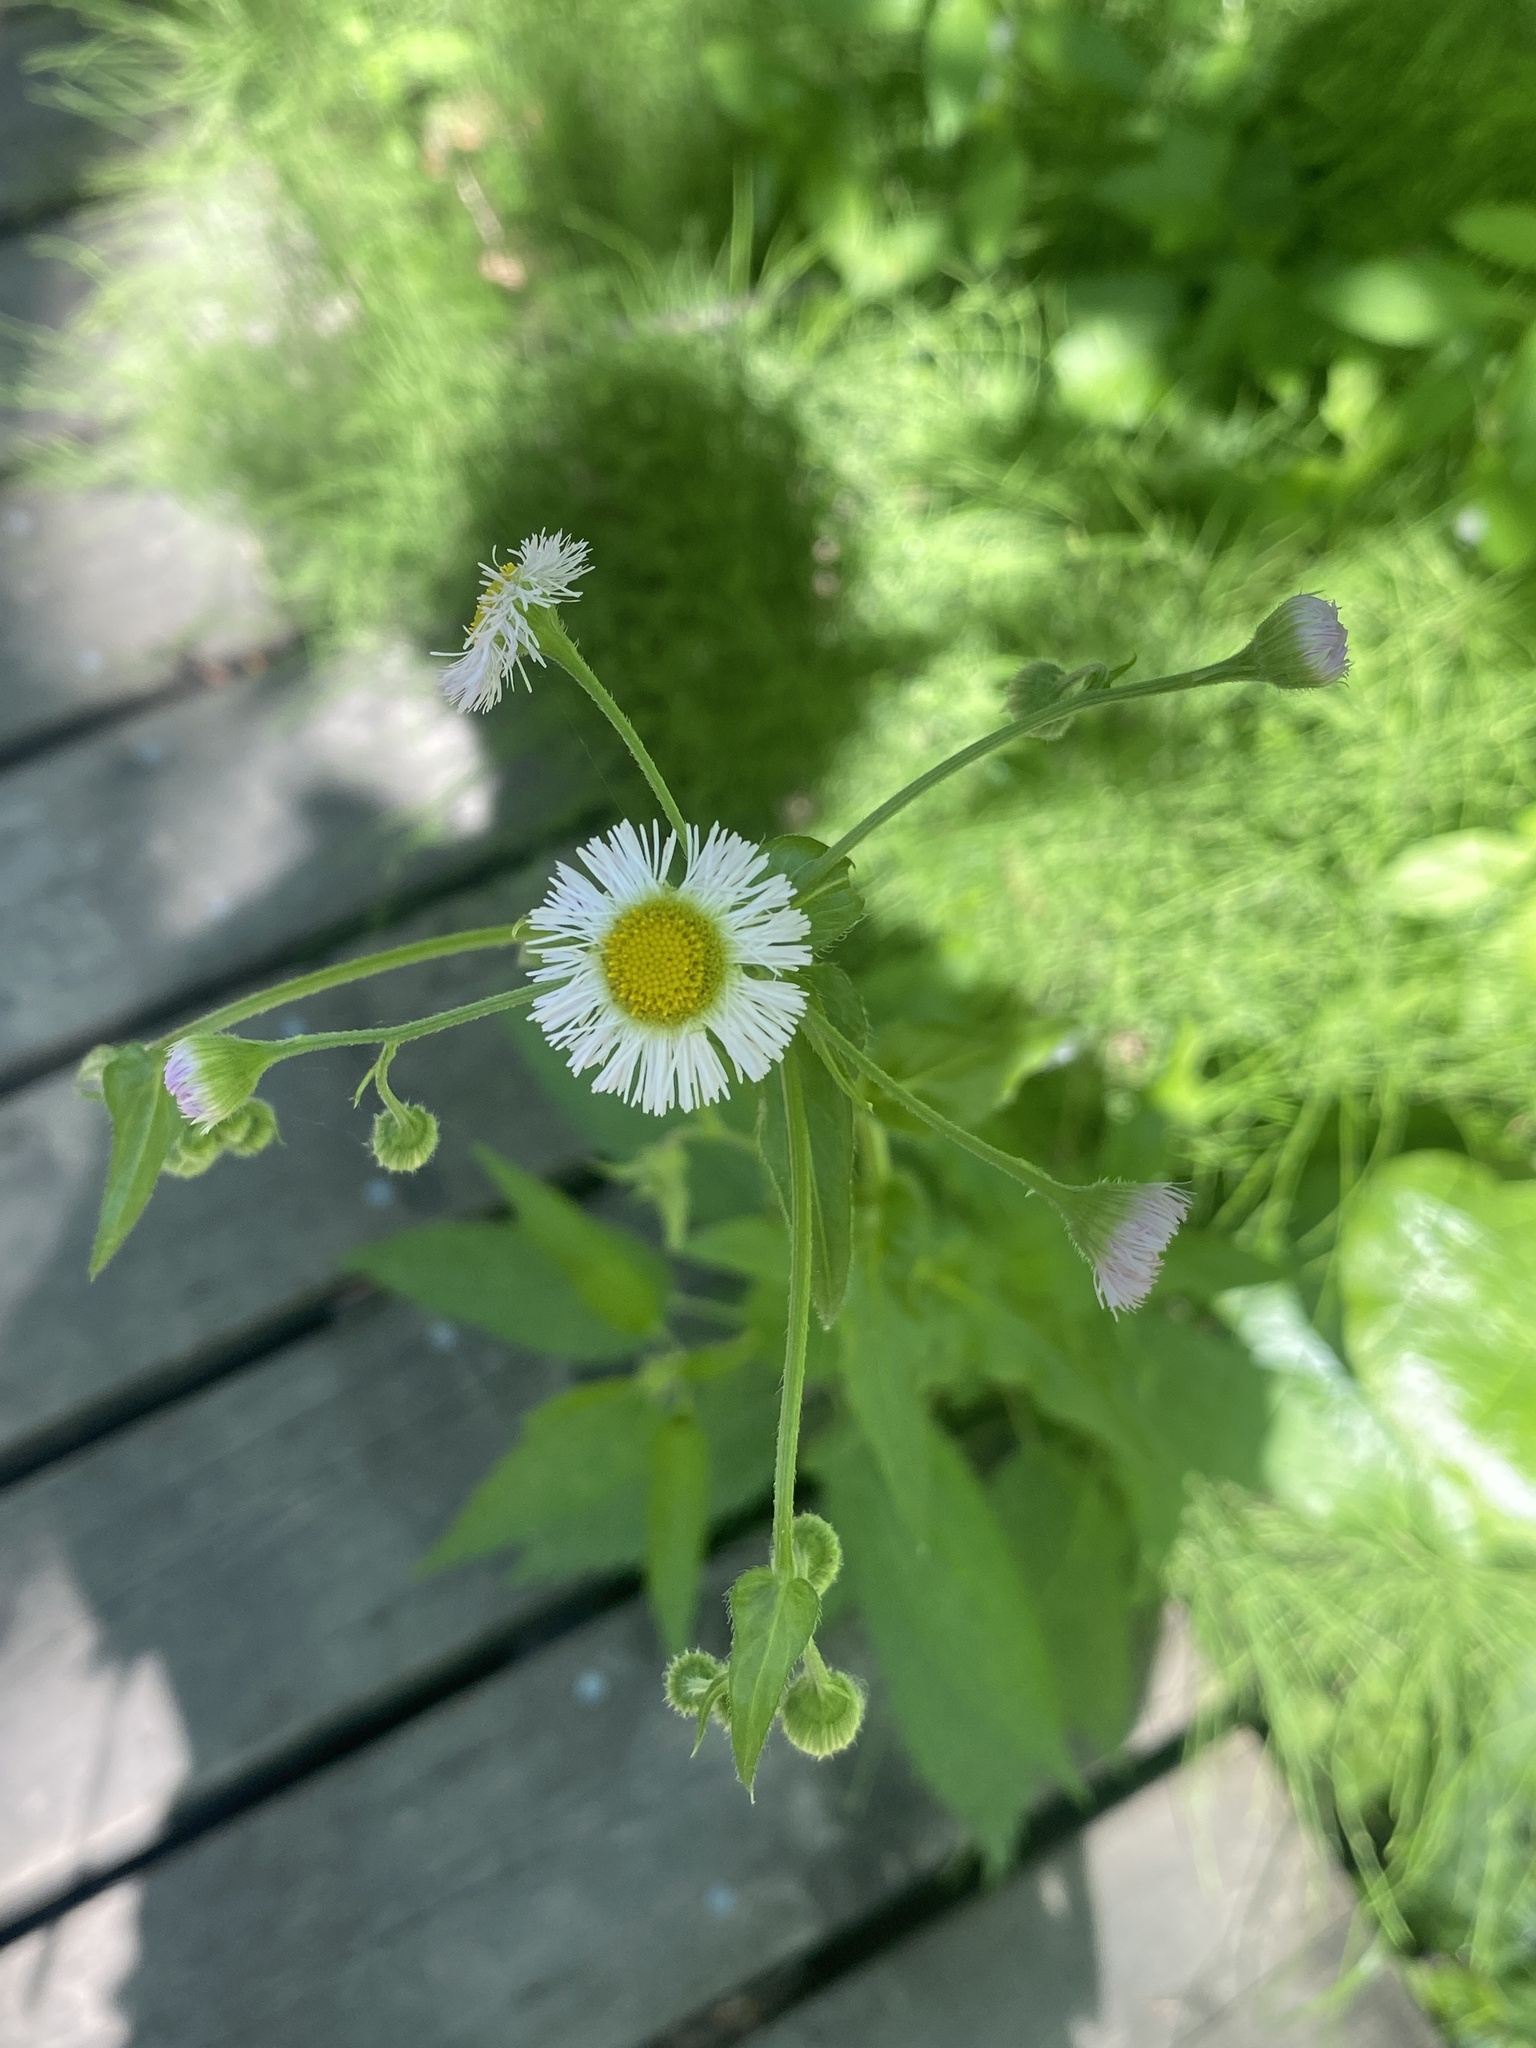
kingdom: Plantae
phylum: Tracheophyta
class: Magnoliopsida
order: Asterales
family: Asteraceae
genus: Erigeron
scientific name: Erigeron philadelphicus
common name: Robin's-plantain
